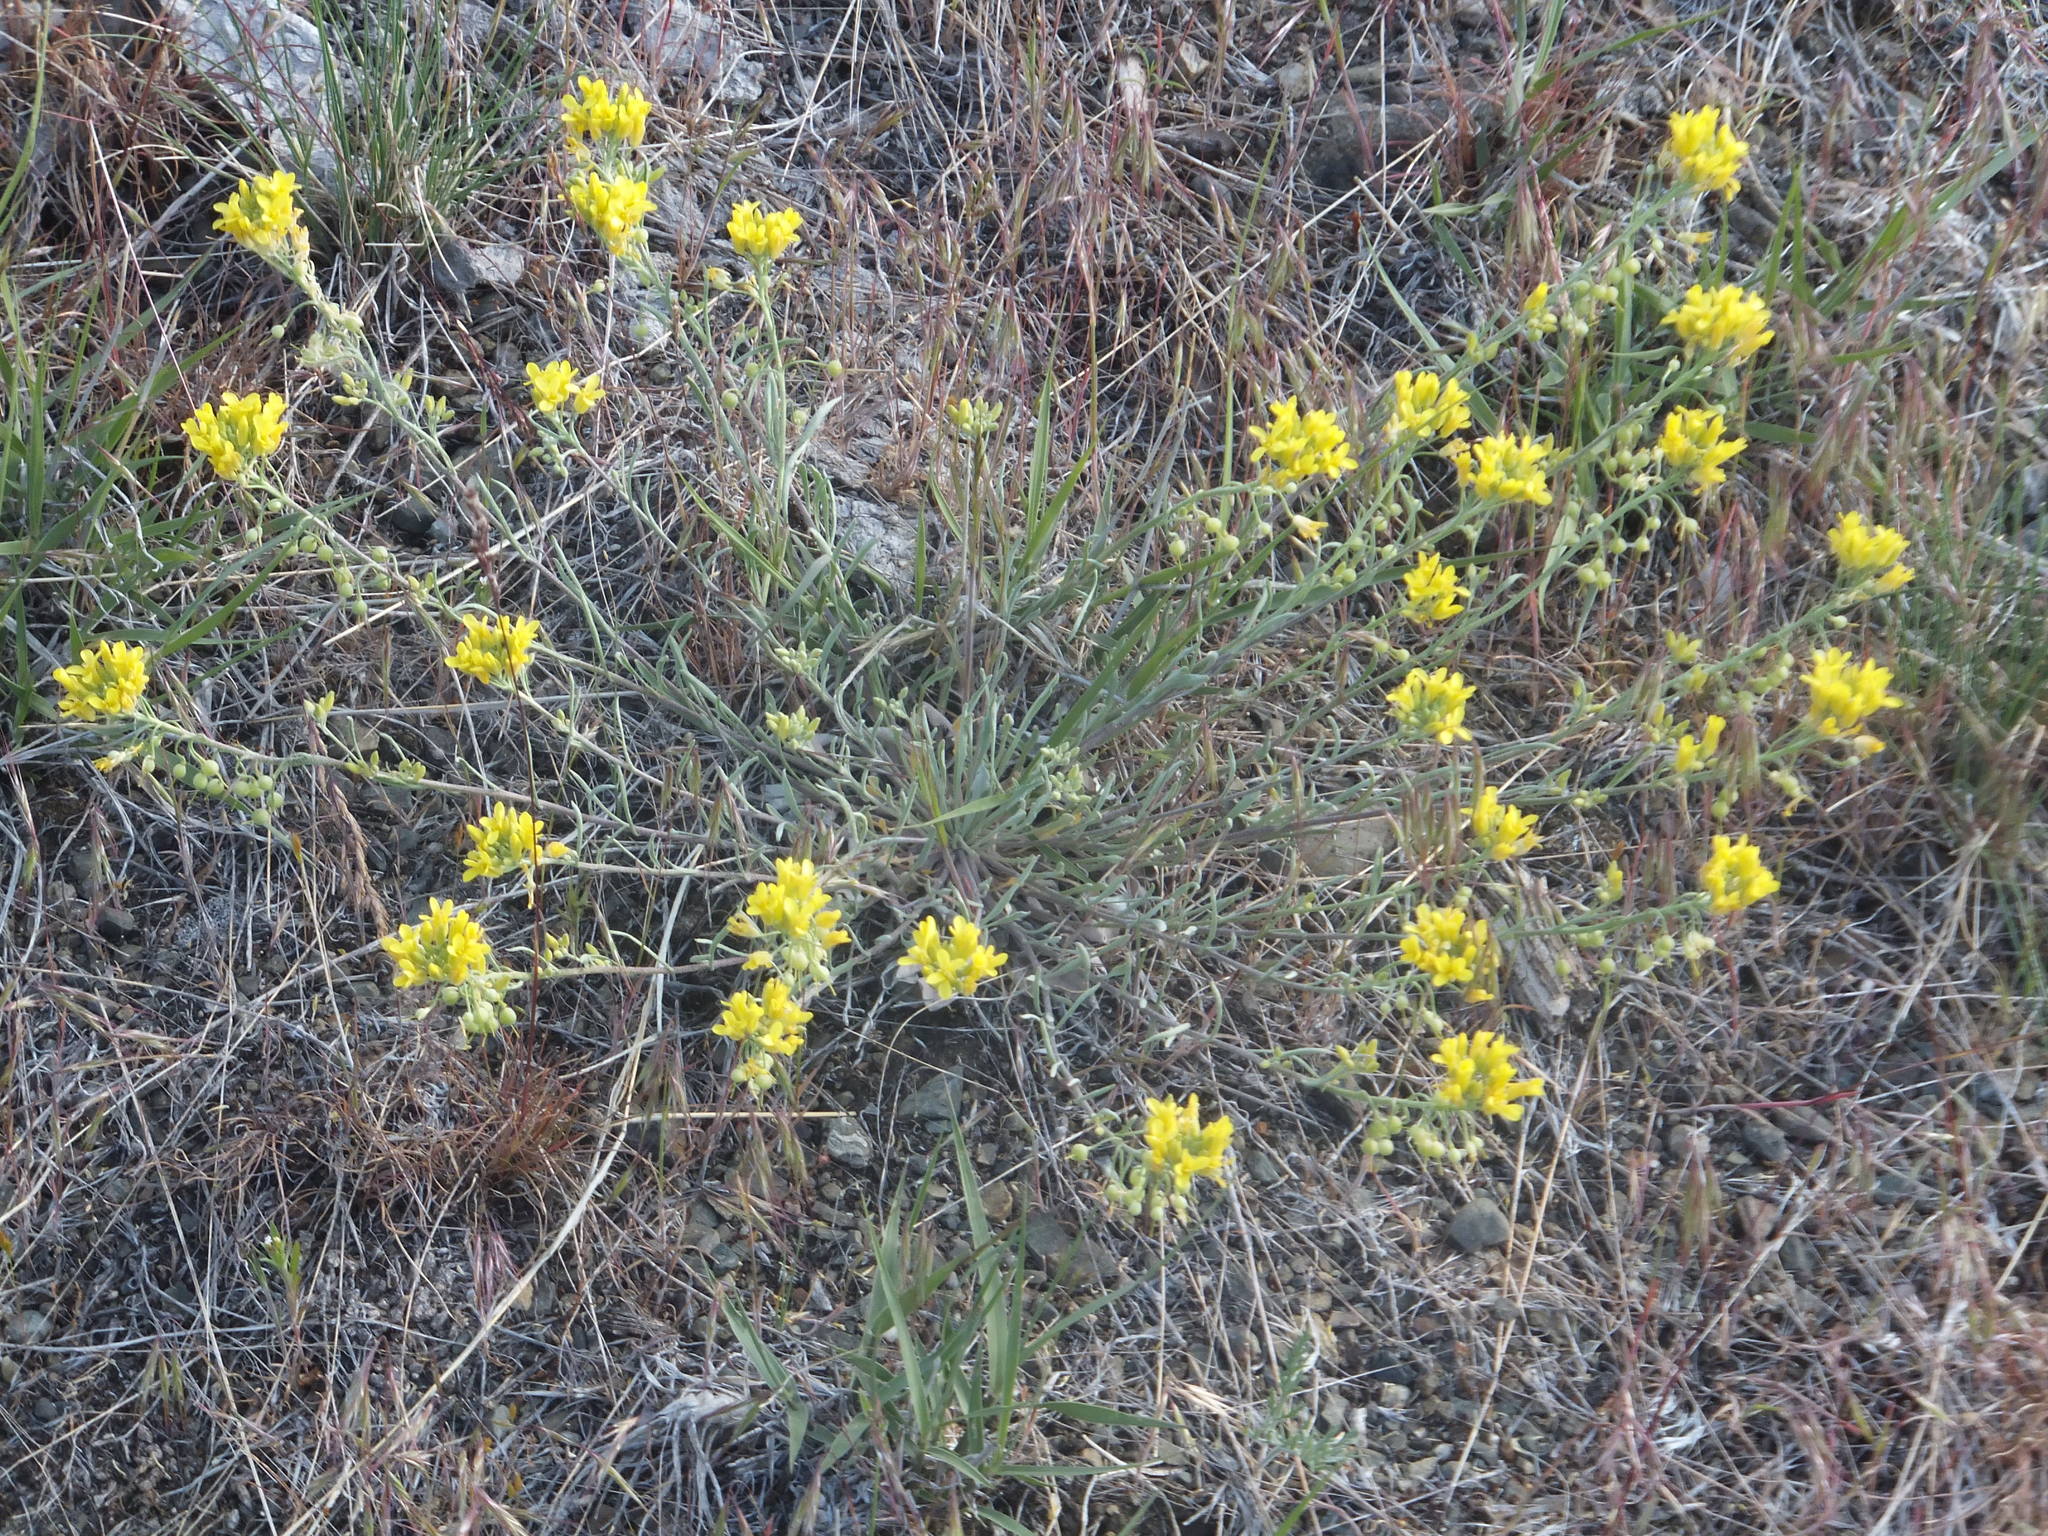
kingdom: Plantae
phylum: Tracheophyta
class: Magnoliopsida
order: Brassicales
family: Brassicaceae
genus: Physaria
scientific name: Physaria douglasii
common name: Douglas's bladderpod
